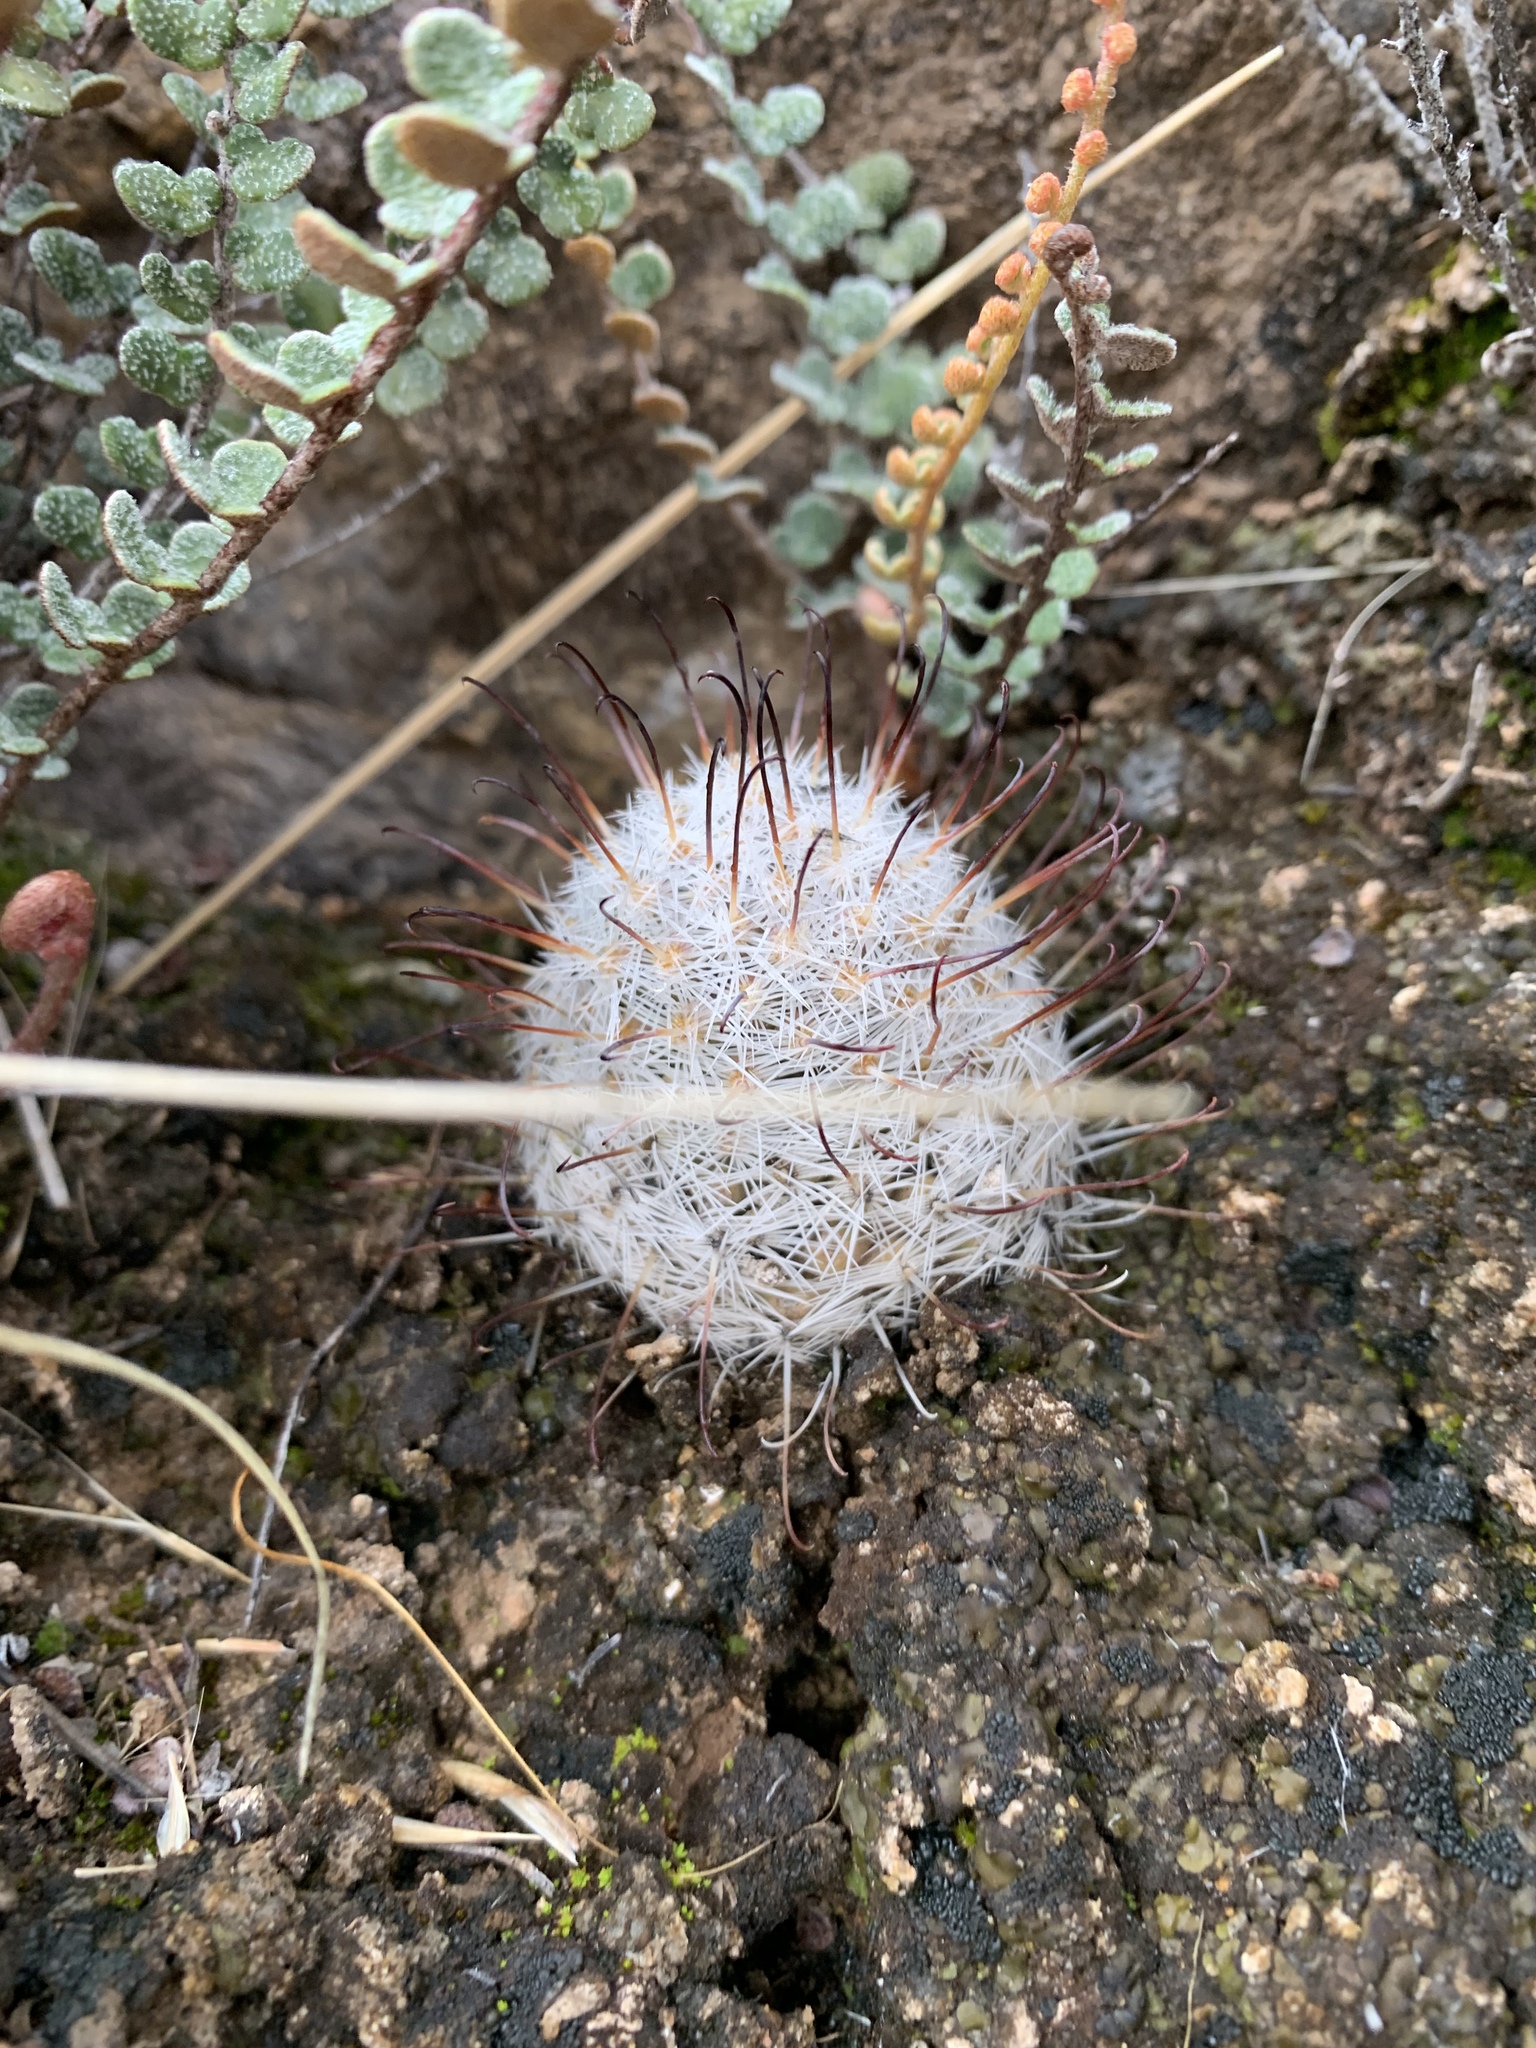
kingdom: Plantae
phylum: Tracheophyta
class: Magnoliopsida
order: Caryophyllales
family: Cactaceae
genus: Cochemiea
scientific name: Cochemiea grahamii
